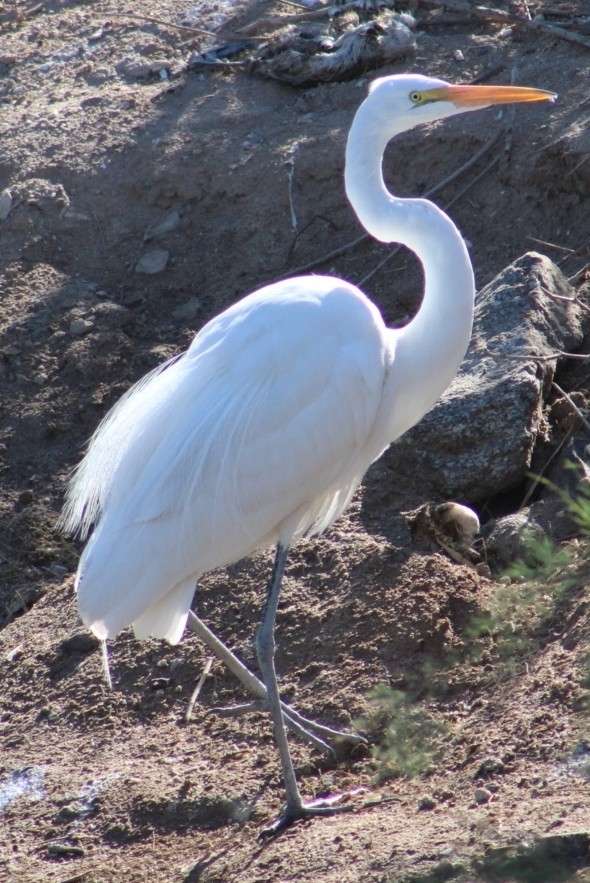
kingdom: Animalia
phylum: Chordata
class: Aves
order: Pelecaniformes
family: Ardeidae
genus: Ardea
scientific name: Ardea alba
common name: Great egret
